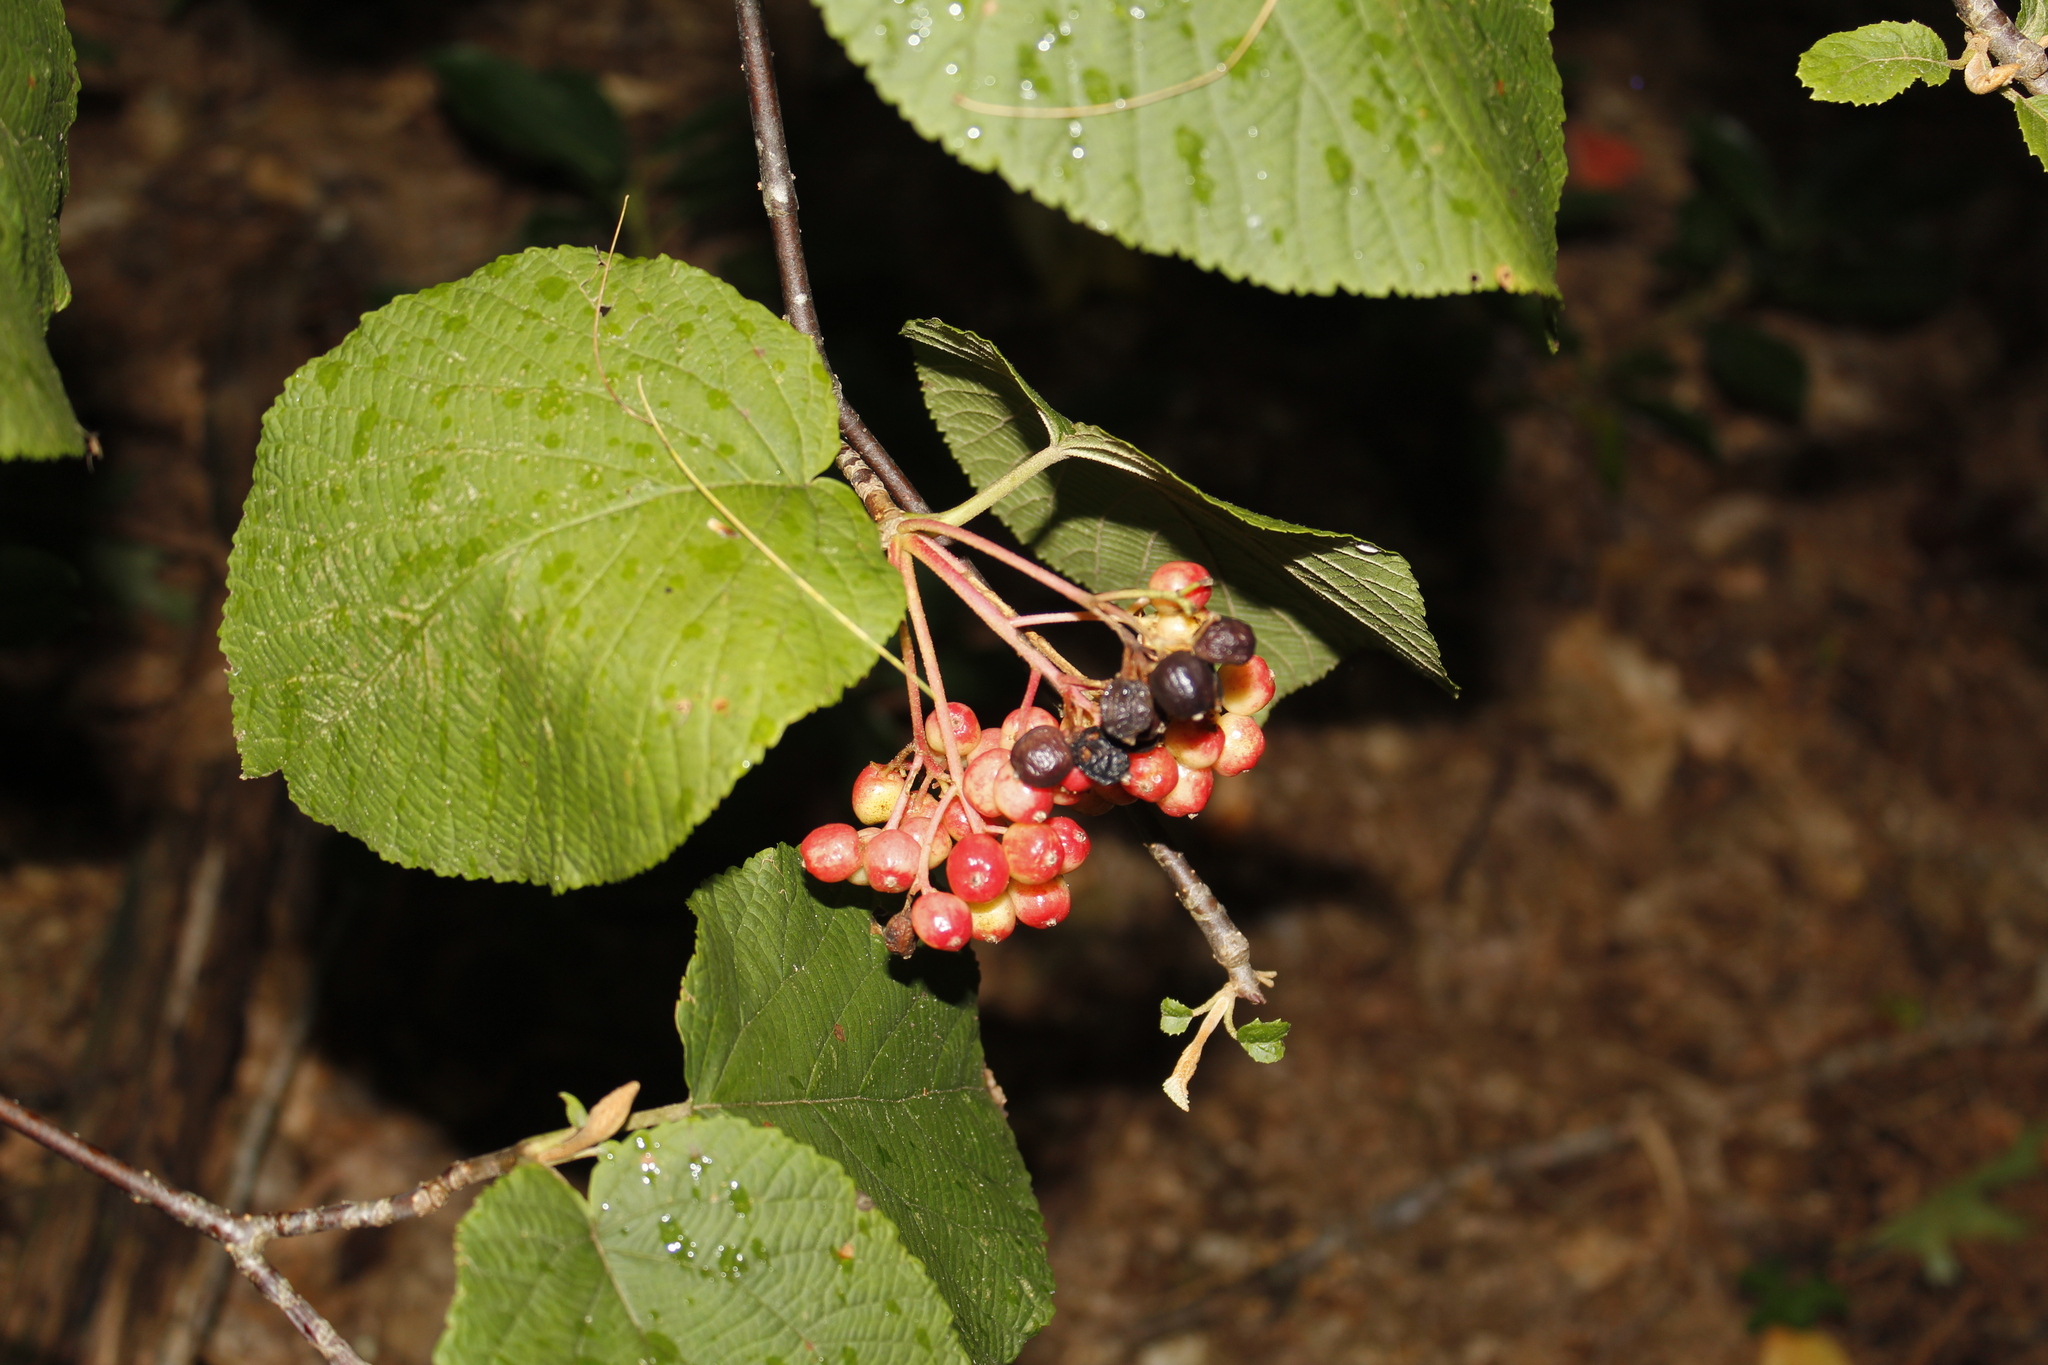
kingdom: Plantae
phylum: Tracheophyta
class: Magnoliopsida
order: Dipsacales
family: Viburnaceae
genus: Viburnum
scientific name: Viburnum lantanoides
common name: Hobblebush
